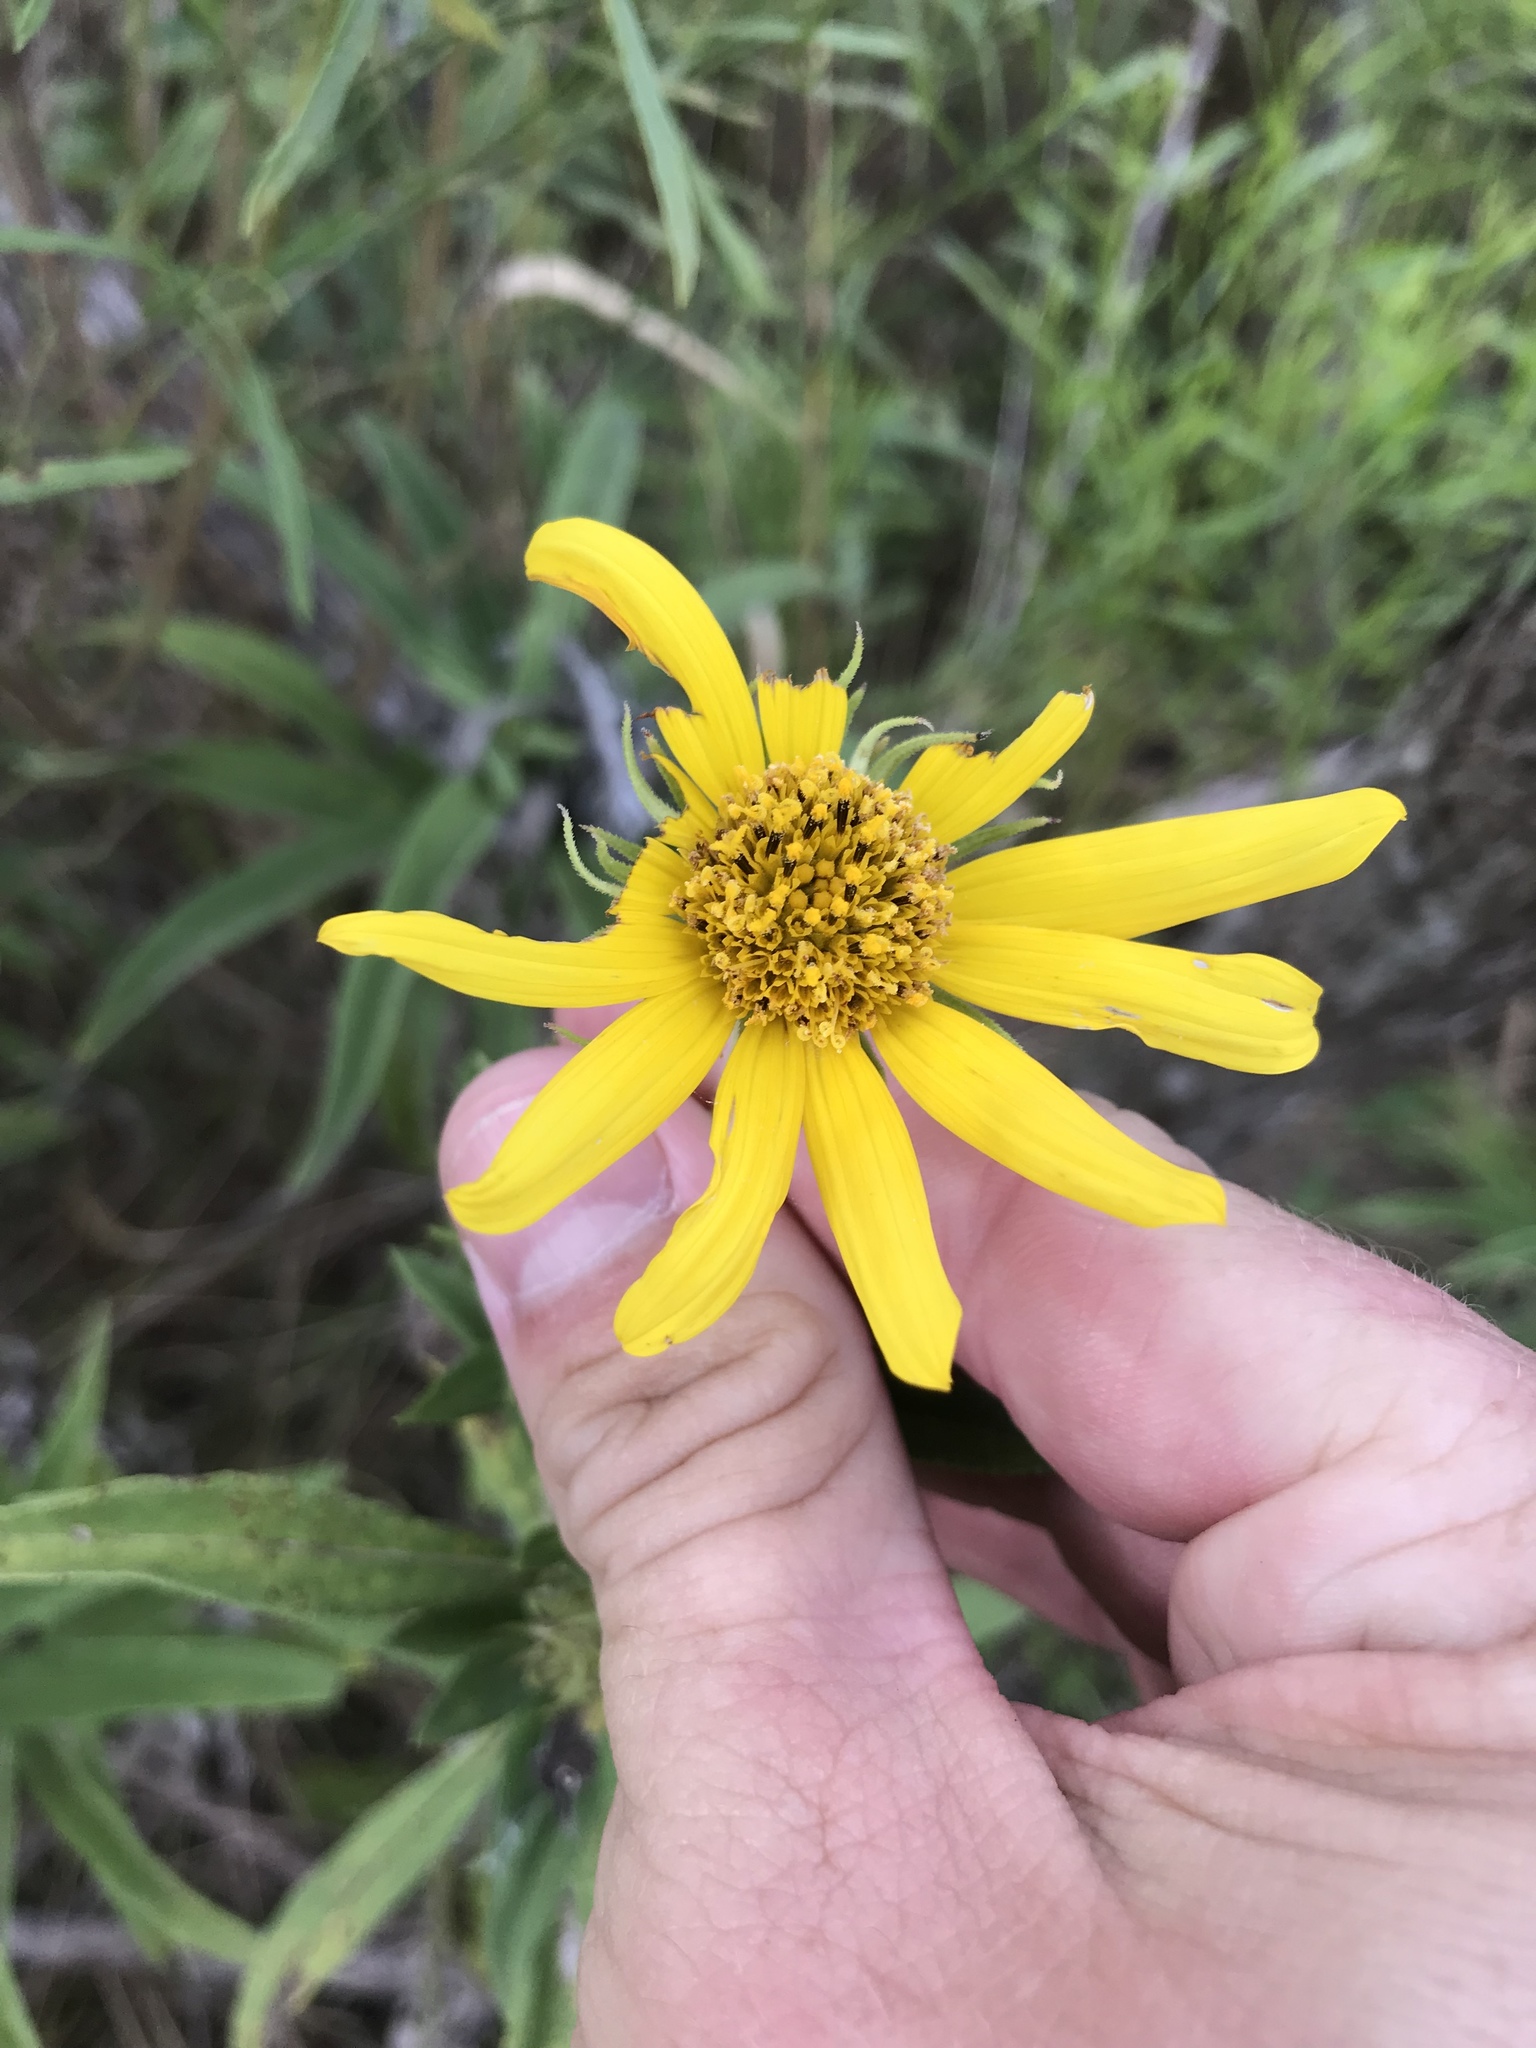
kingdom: Plantae
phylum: Tracheophyta
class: Magnoliopsida
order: Asterales
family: Asteraceae
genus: Helianthus
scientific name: Helianthus maximiliani
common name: Maximilian's sunflower
